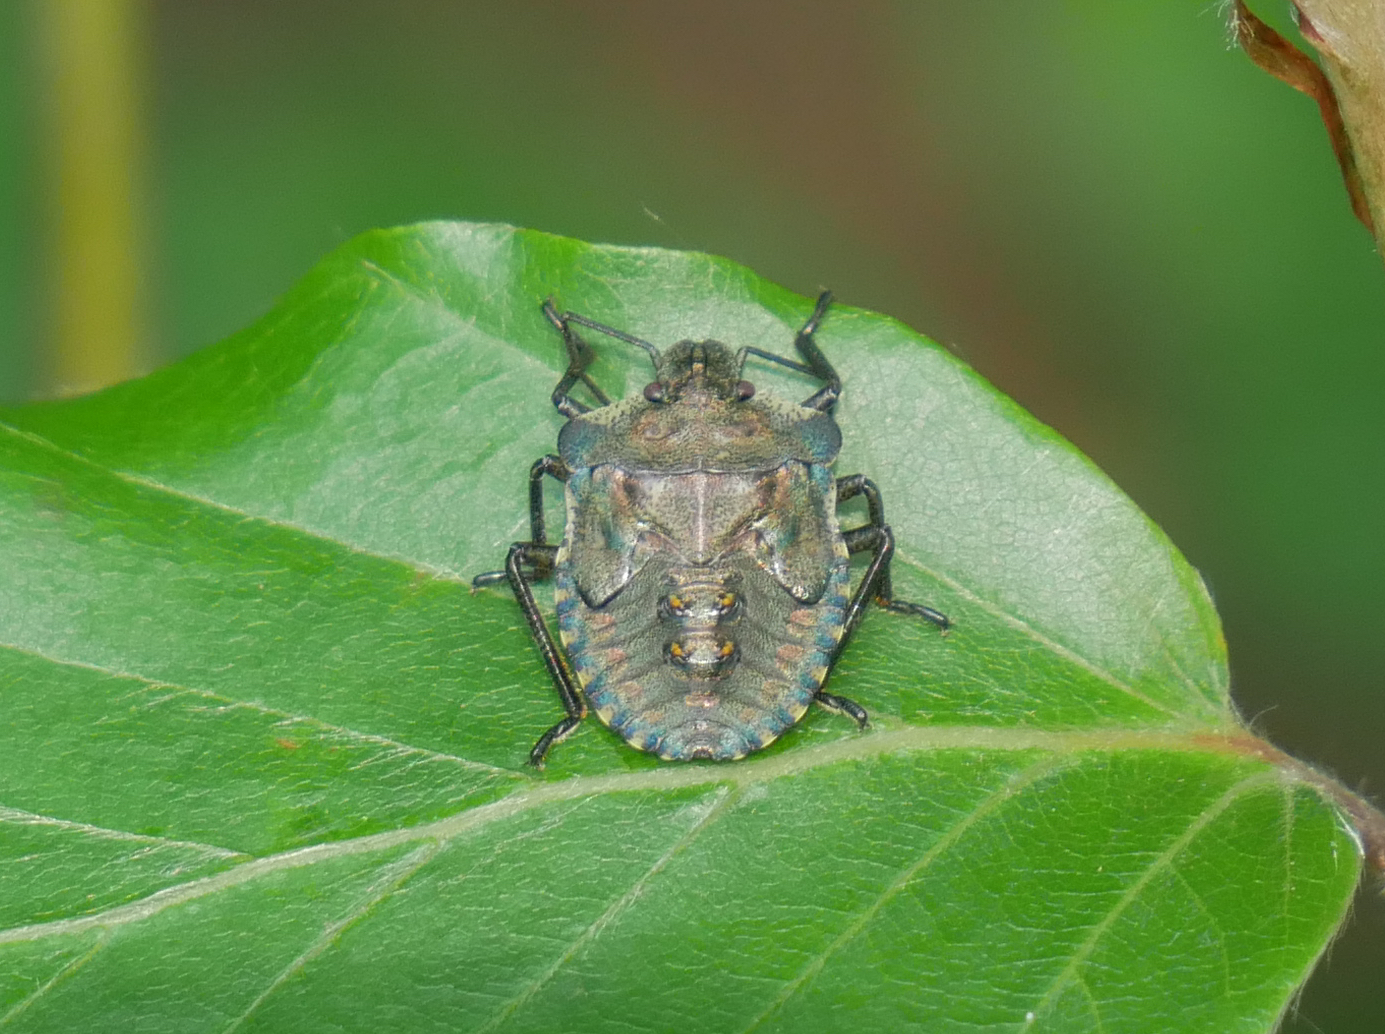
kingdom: Animalia
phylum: Arthropoda
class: Insecta
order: Hemiptera
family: Pentatomidae
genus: Pentatoma
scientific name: Pentatoma rufipes
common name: Forest bug
